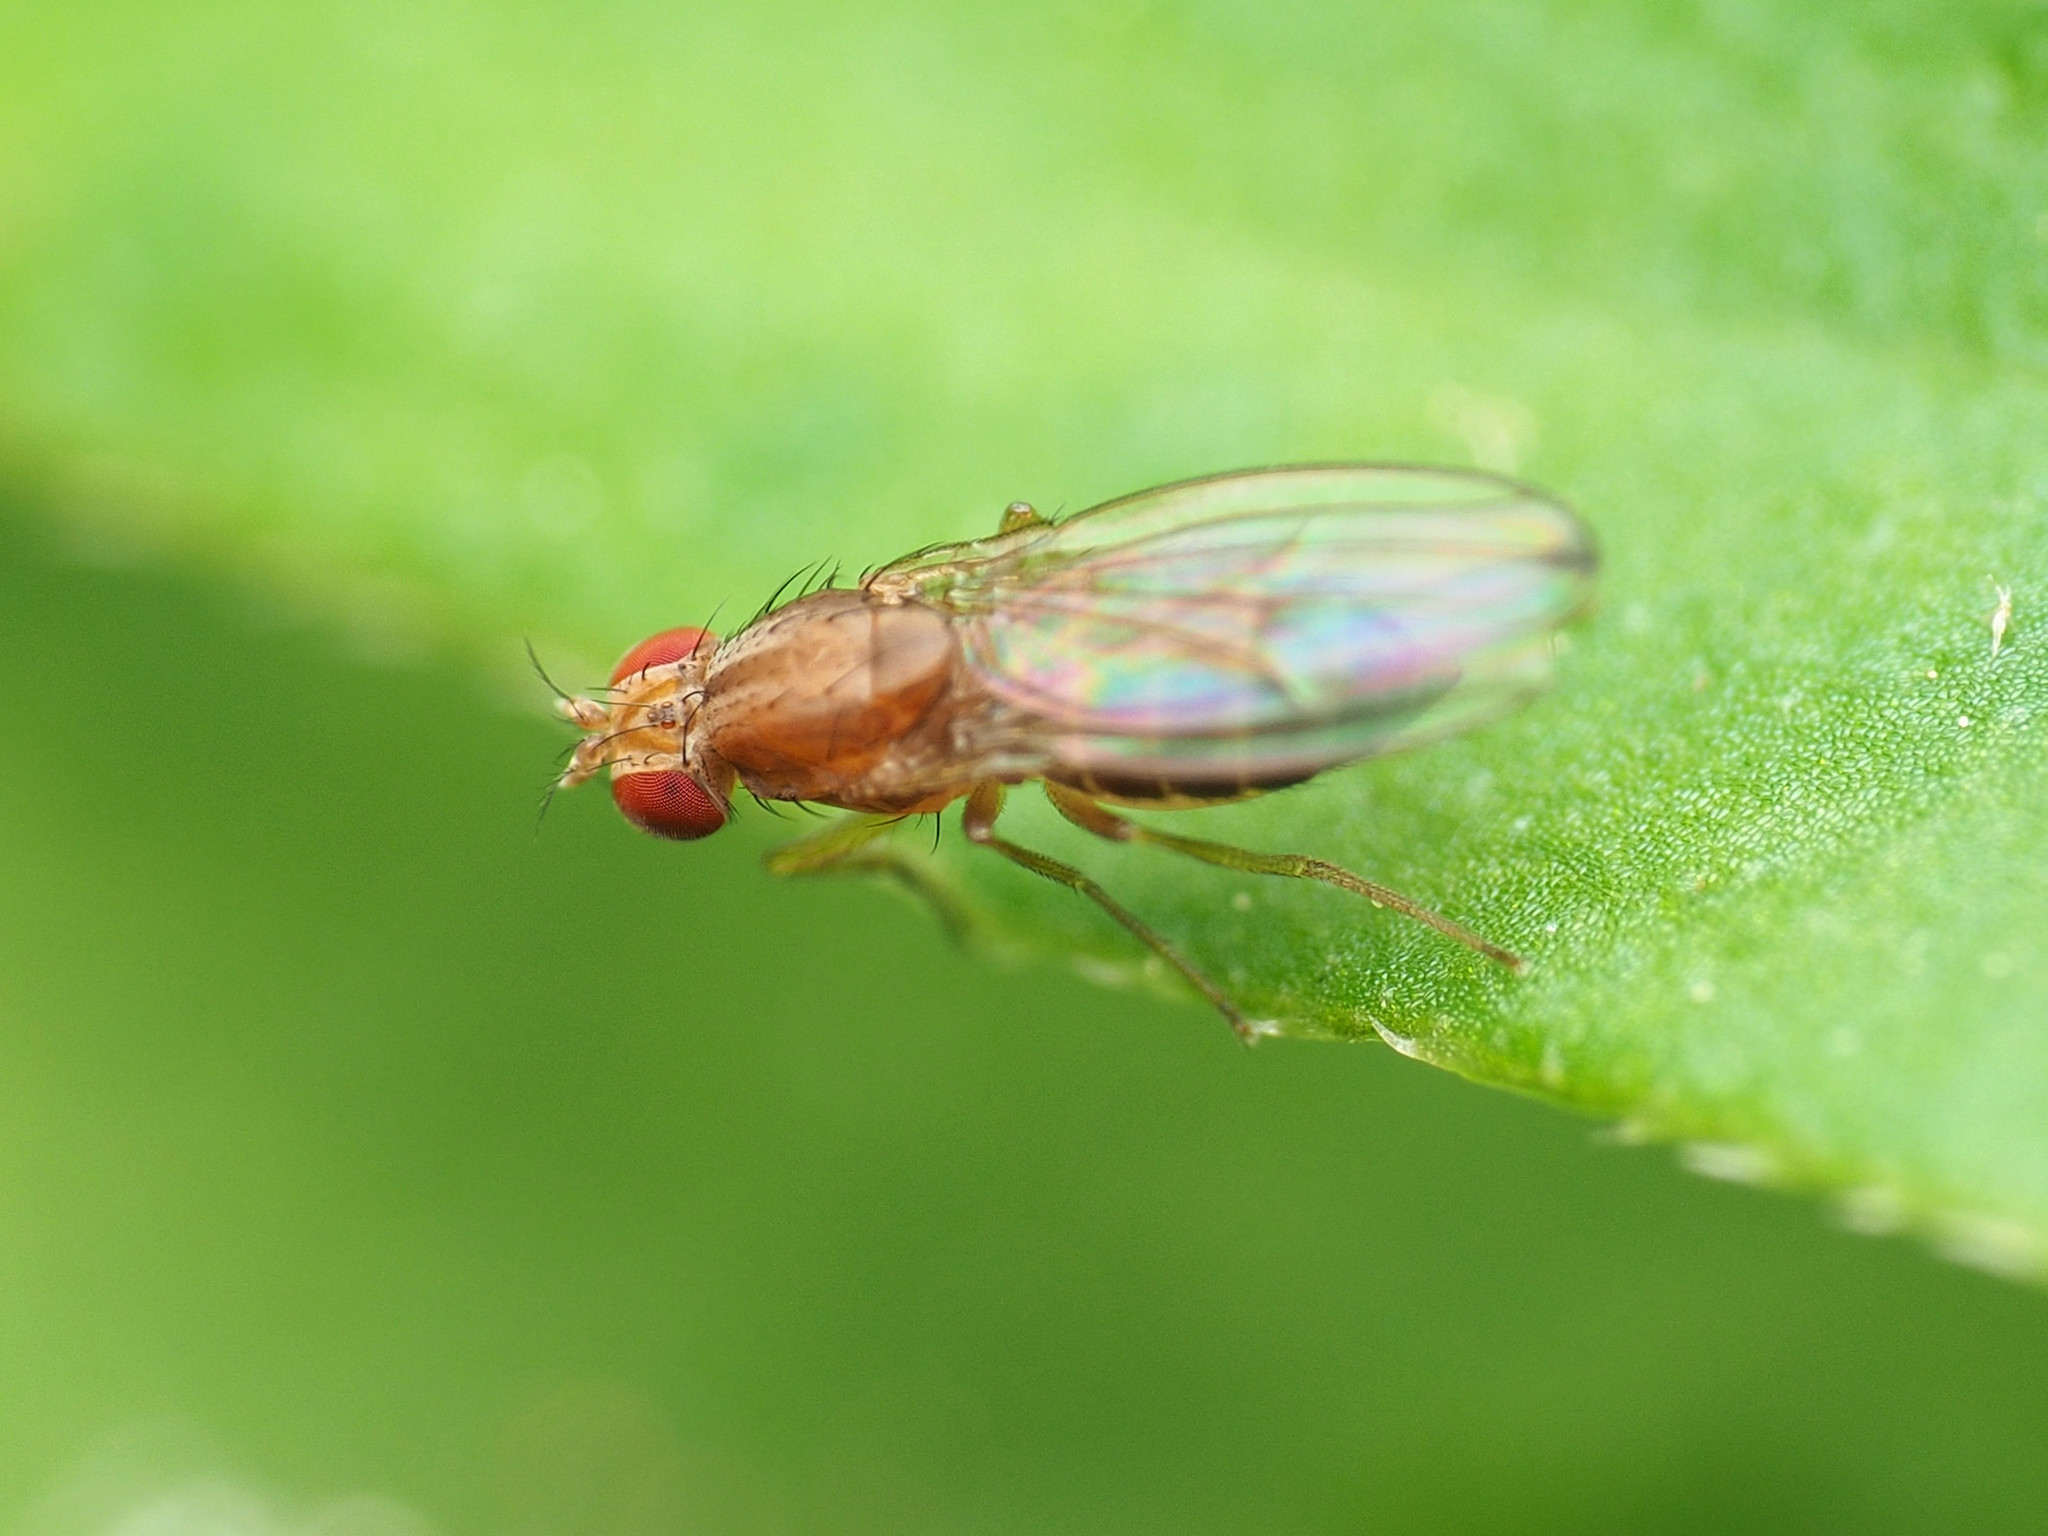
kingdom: Animalia
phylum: Arthropoda
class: Insecta
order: Diptera
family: Drosophilidae
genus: Scaptomyza
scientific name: Scaptomyza adusta
